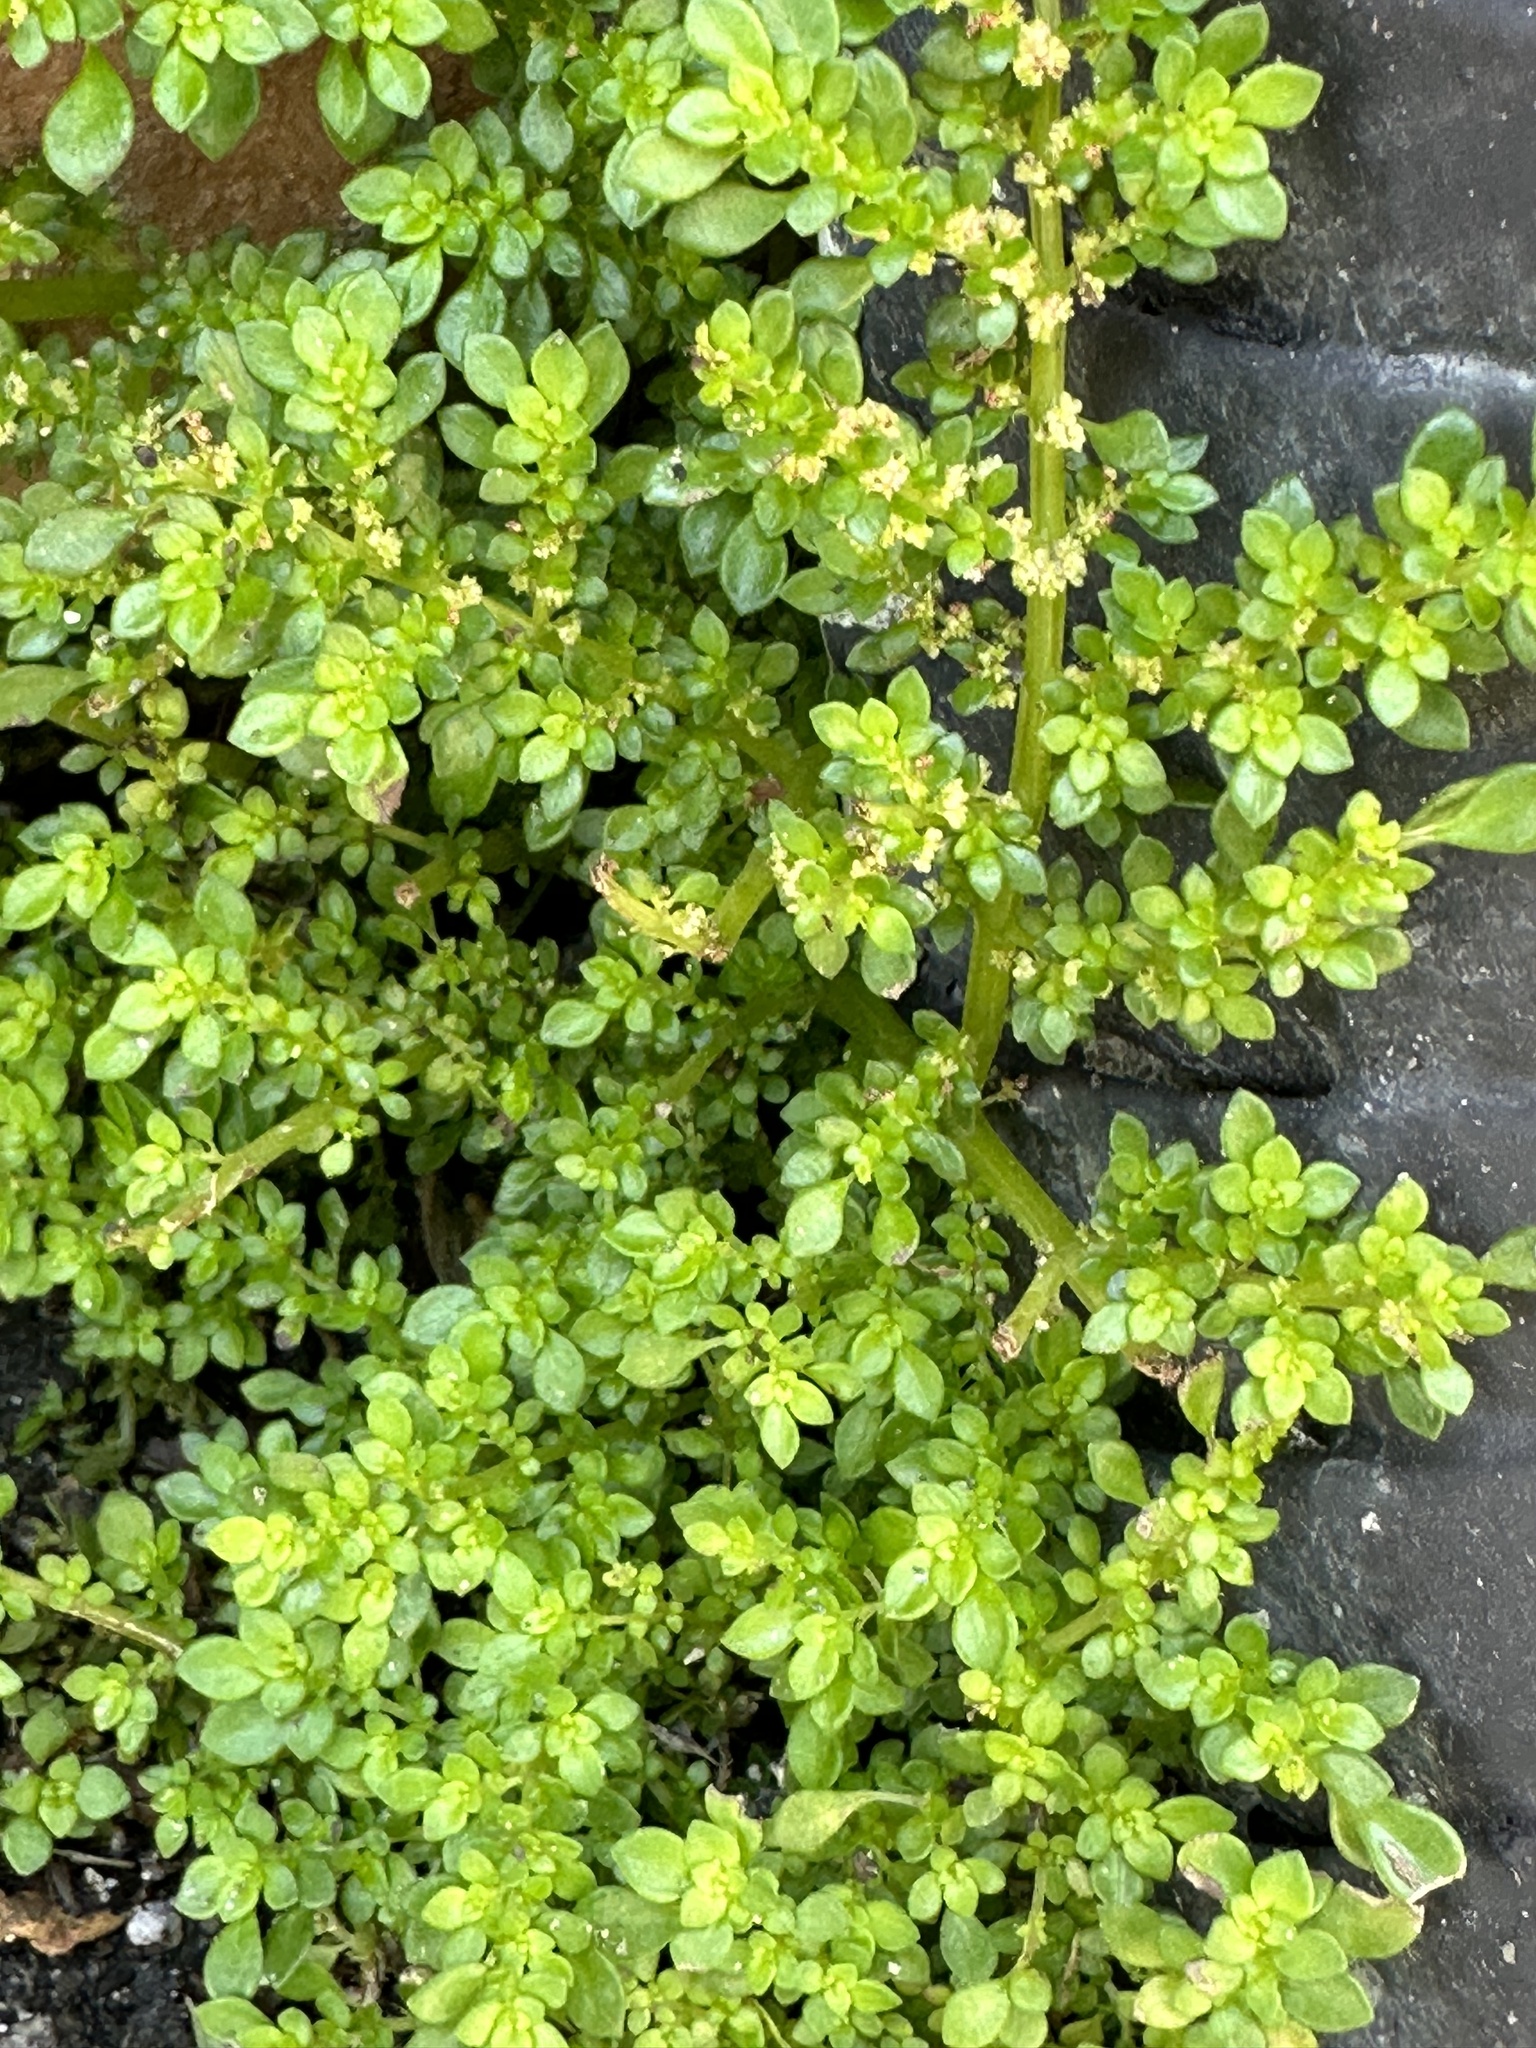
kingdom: Plantae
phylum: Tracheophyta
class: Magnoliopsida
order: Rosales
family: Urticaceae
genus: Pilea
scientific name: Pilea microphylla
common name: Artillery-plant
